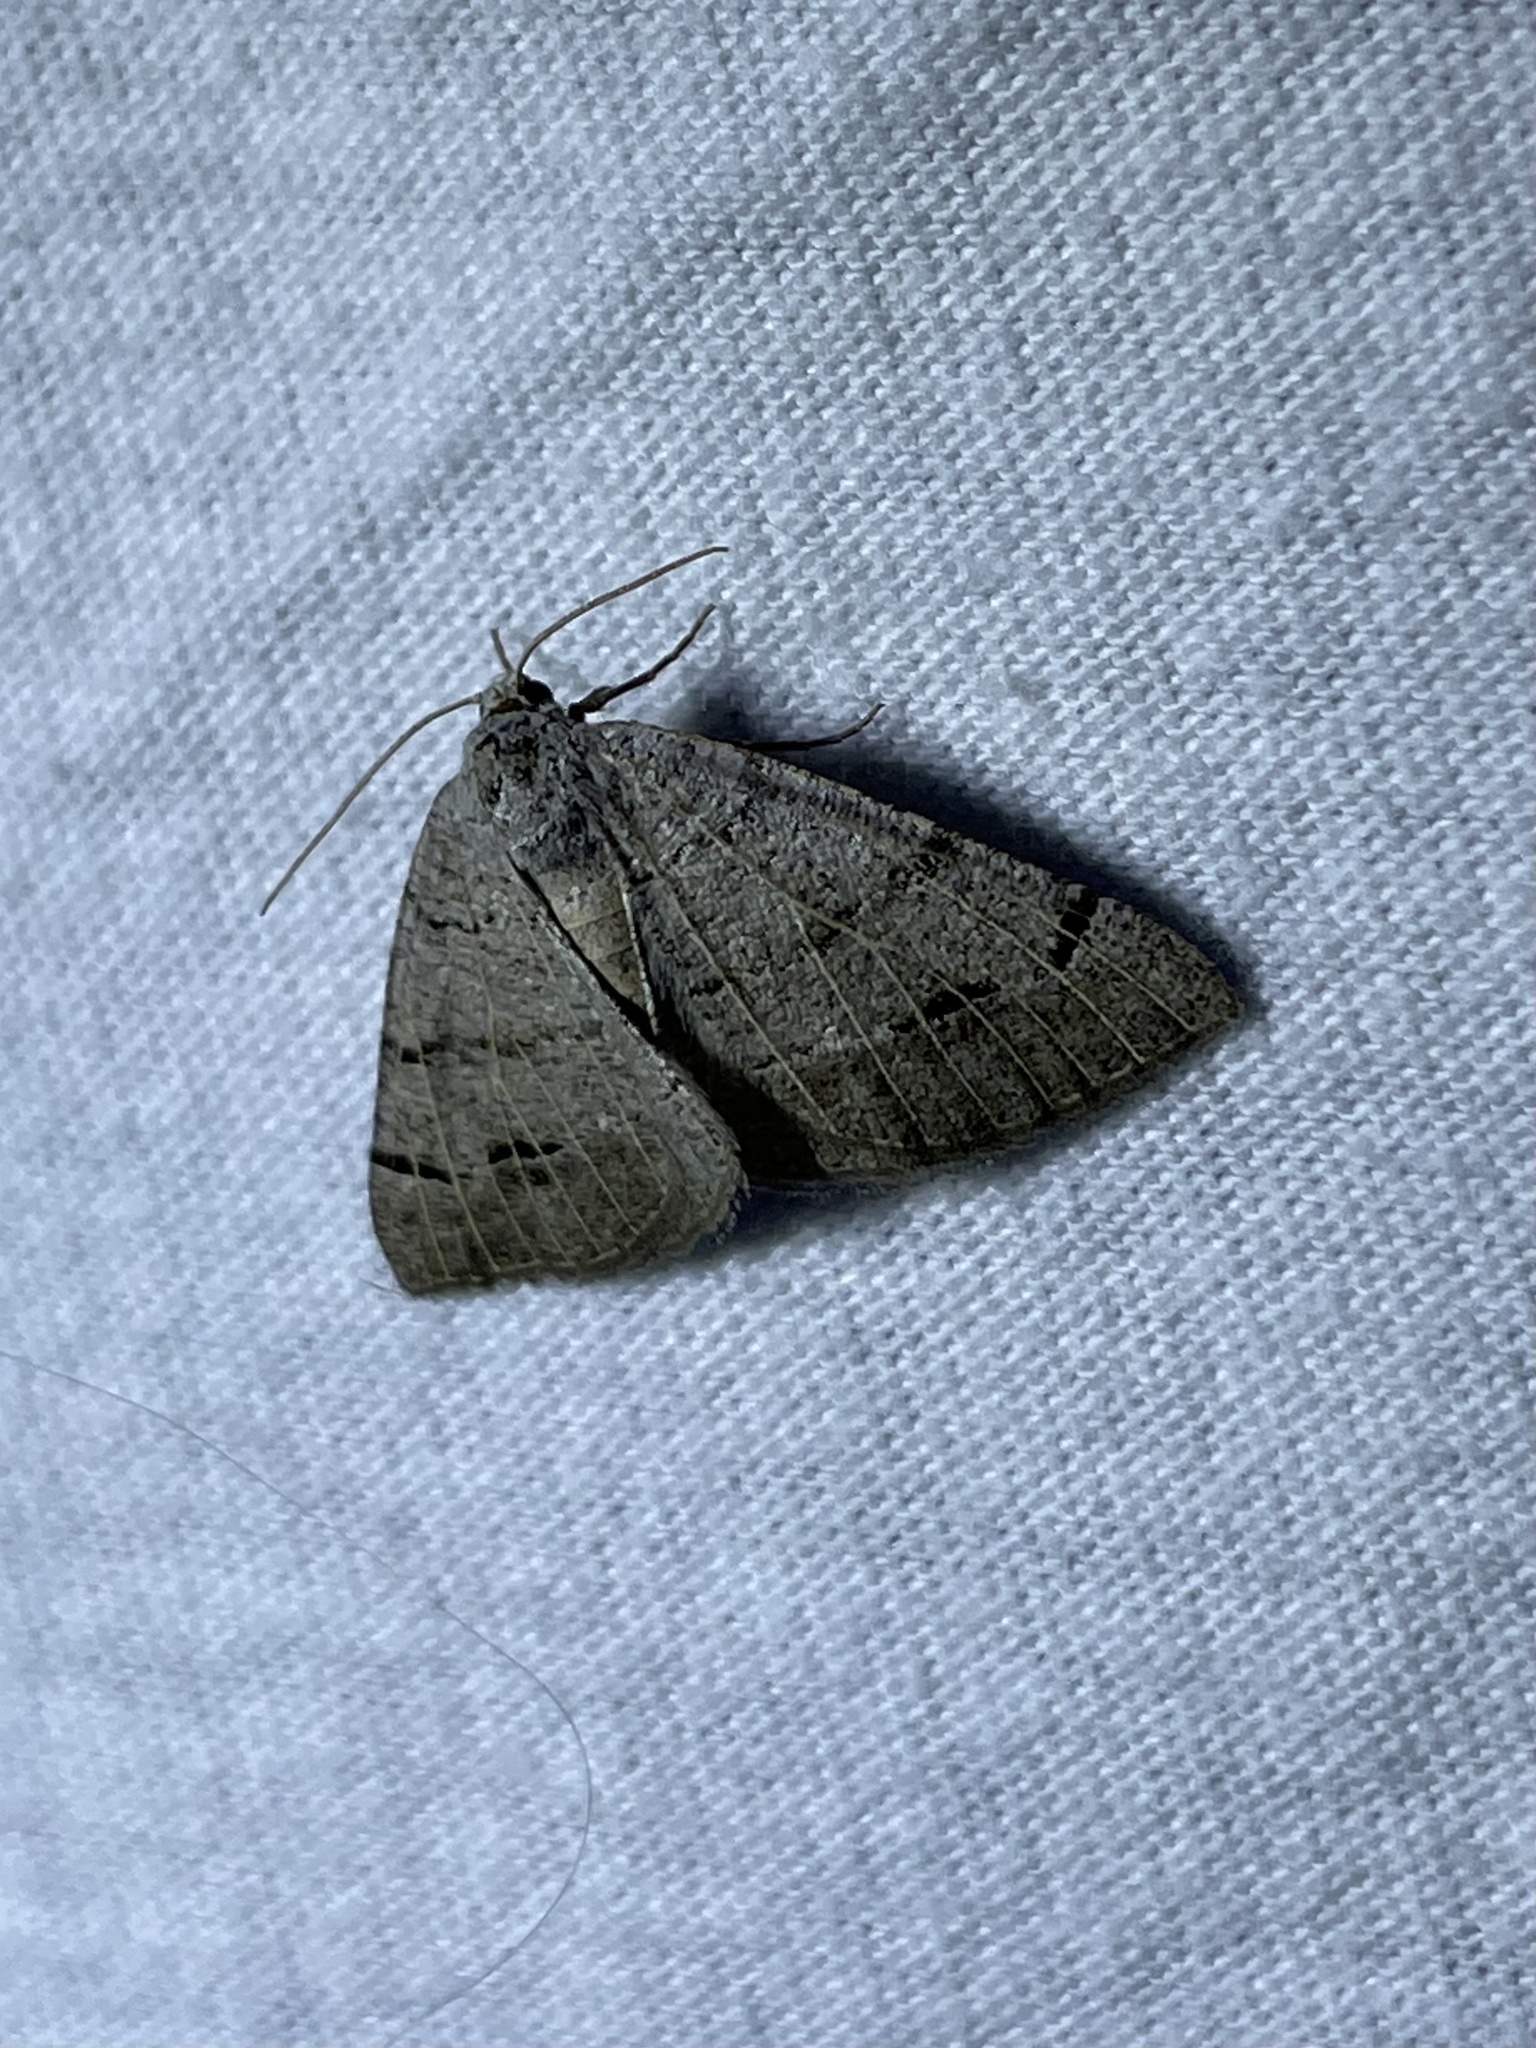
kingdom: Animalia
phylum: Arthropoda
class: Insecta
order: Lepidoptera
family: Geometridae
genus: Isturgia
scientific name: Isturgia dislocaria
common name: Pale-viened enconista
